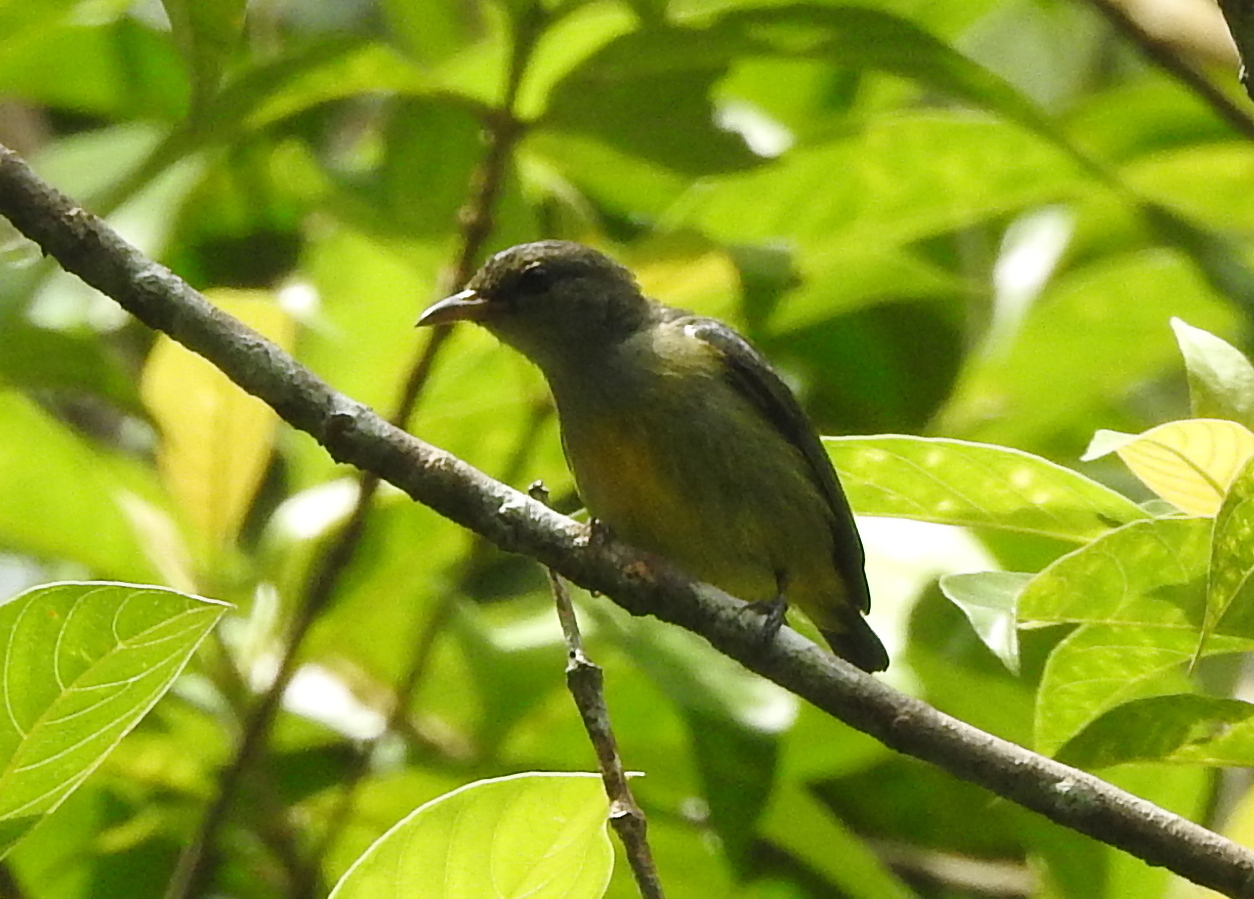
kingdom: Animalia
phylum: Chordata
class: Aves
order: Passeriformes
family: Dicaeidae
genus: Dicaeum
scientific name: Dicaeum trigonostigma
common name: Orange-bellied flowerpecker
